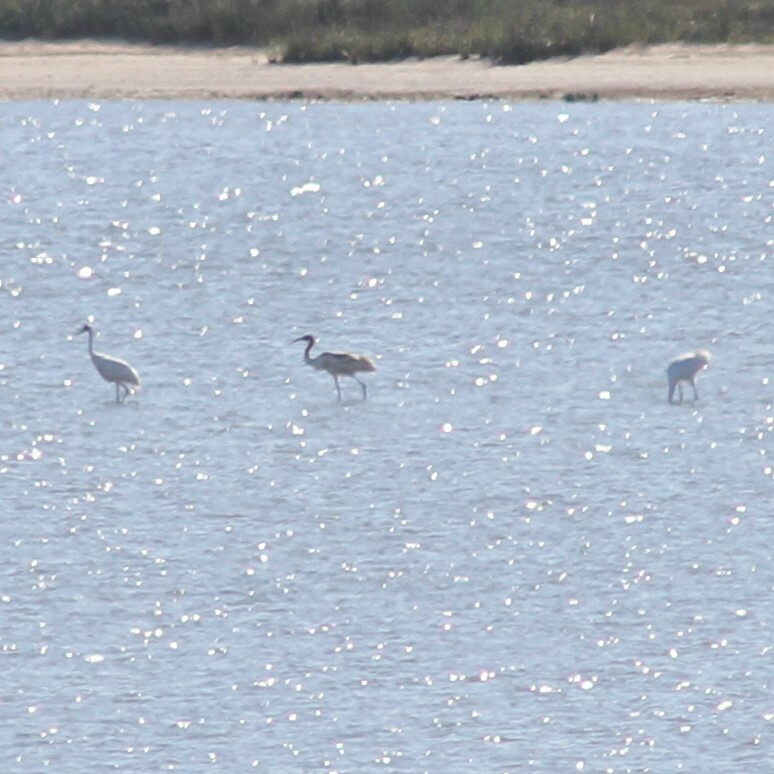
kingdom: Animalia
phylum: Chordata
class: Aves
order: Gruiformes
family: Gruidae
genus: Grus
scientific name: Grus americana
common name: Whooping crane
